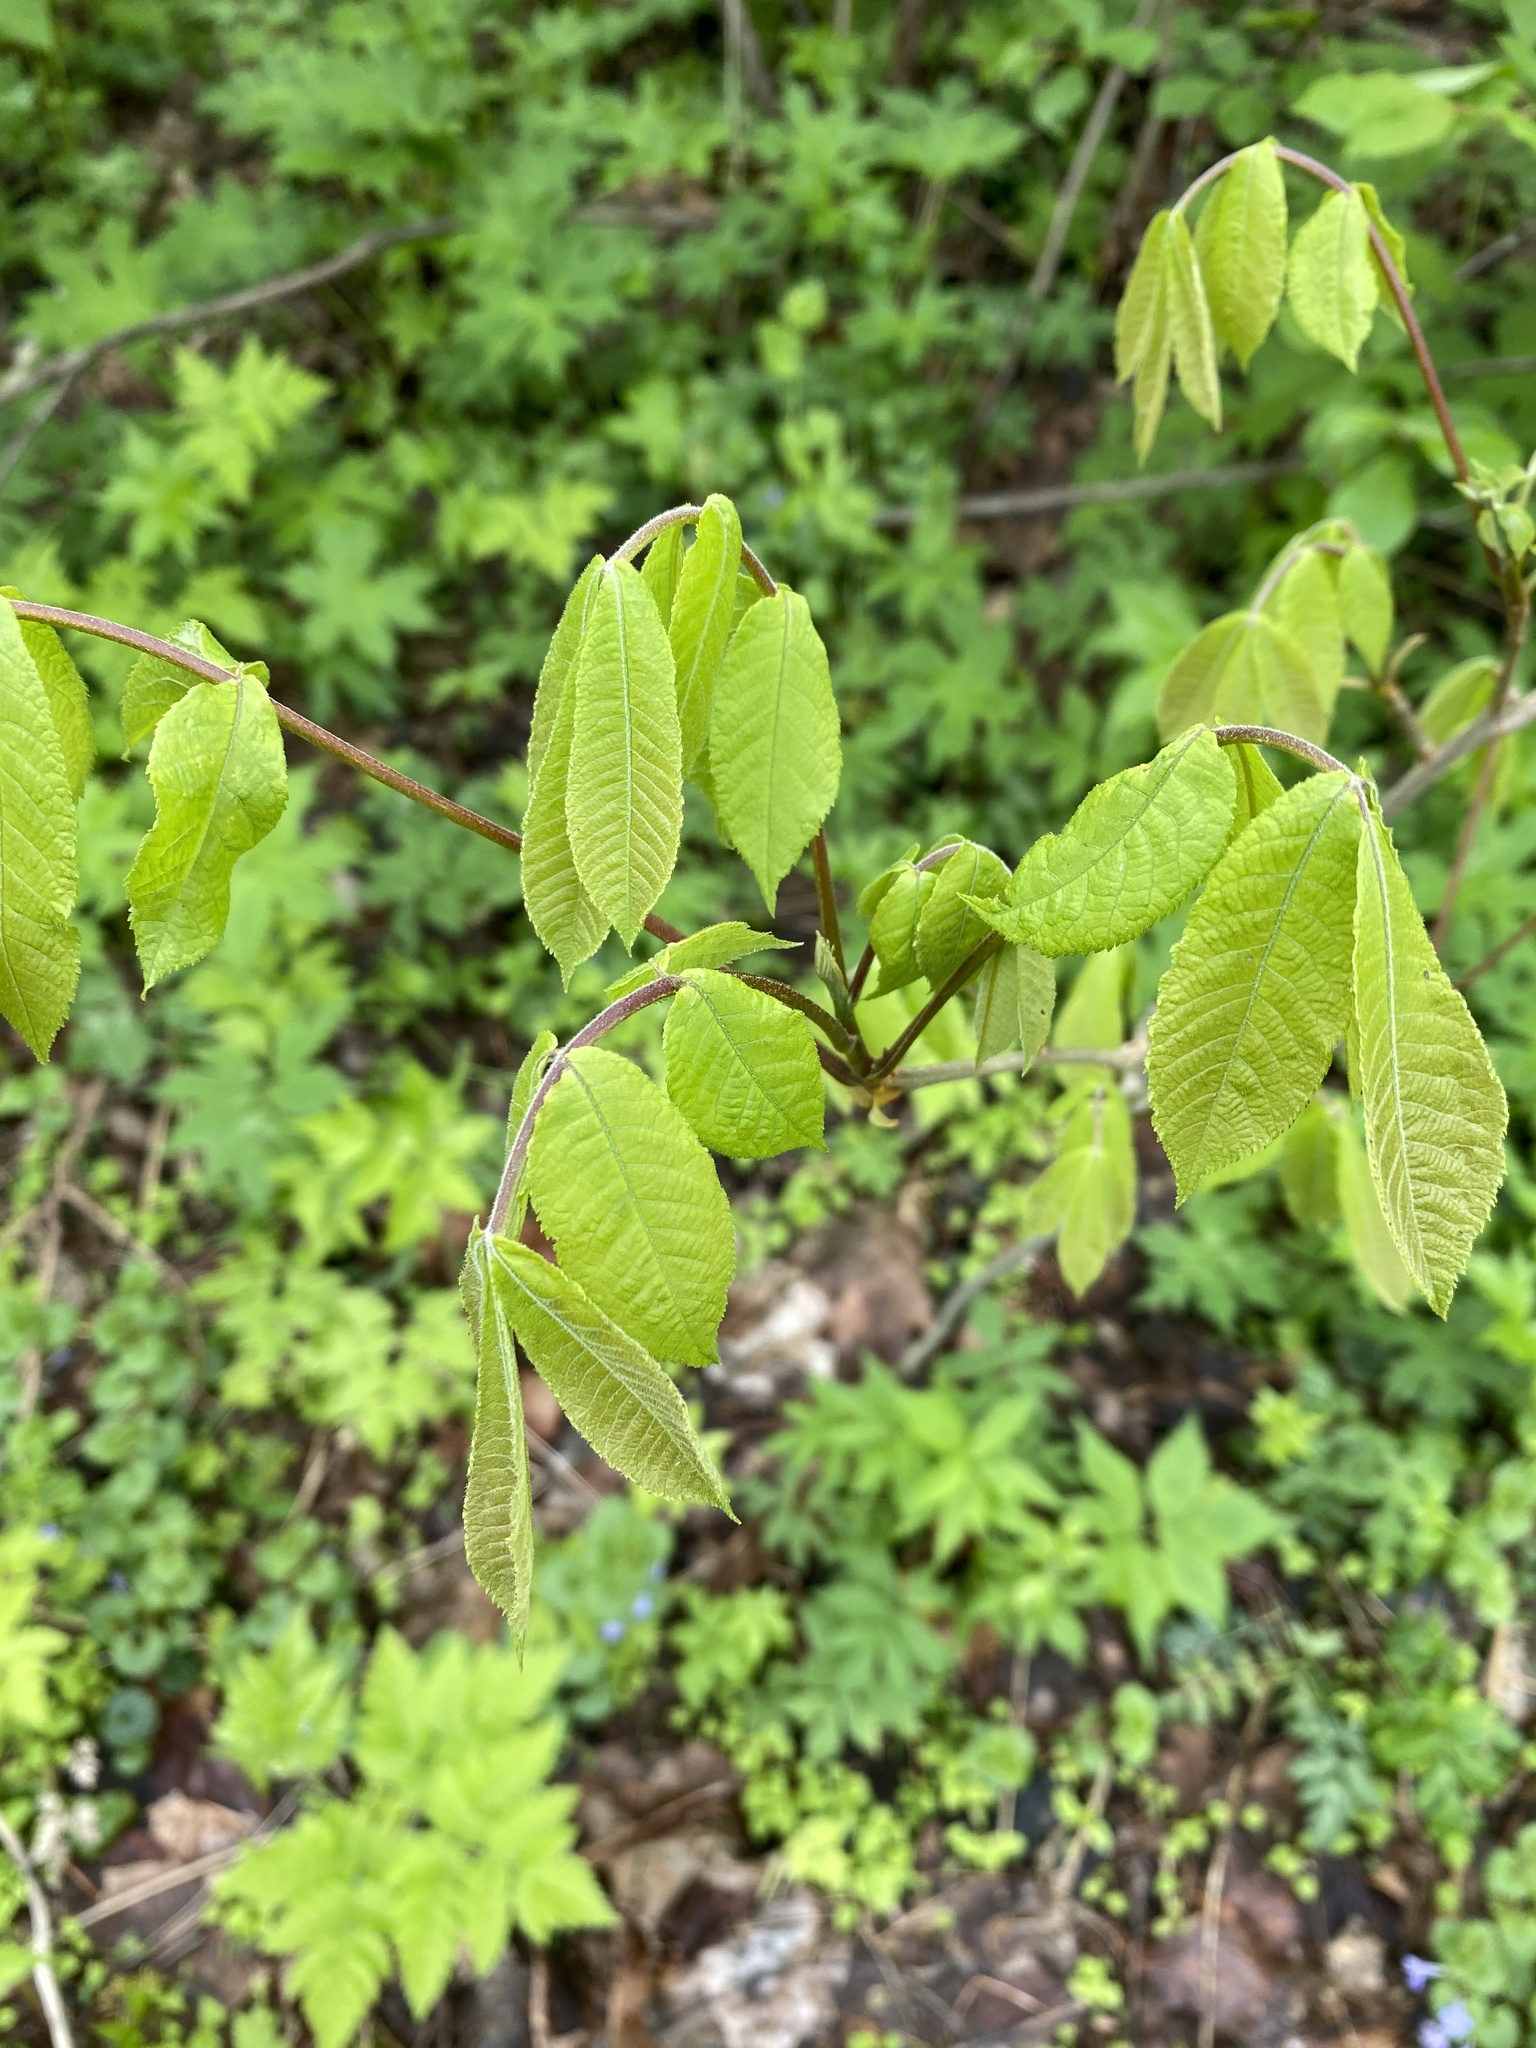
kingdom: Plantae
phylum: Tracheophyta
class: Magnoliopsida
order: Fagales
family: Juglandaceae
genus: Carya
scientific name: Carya cordiformis
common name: Bitternut hickory
